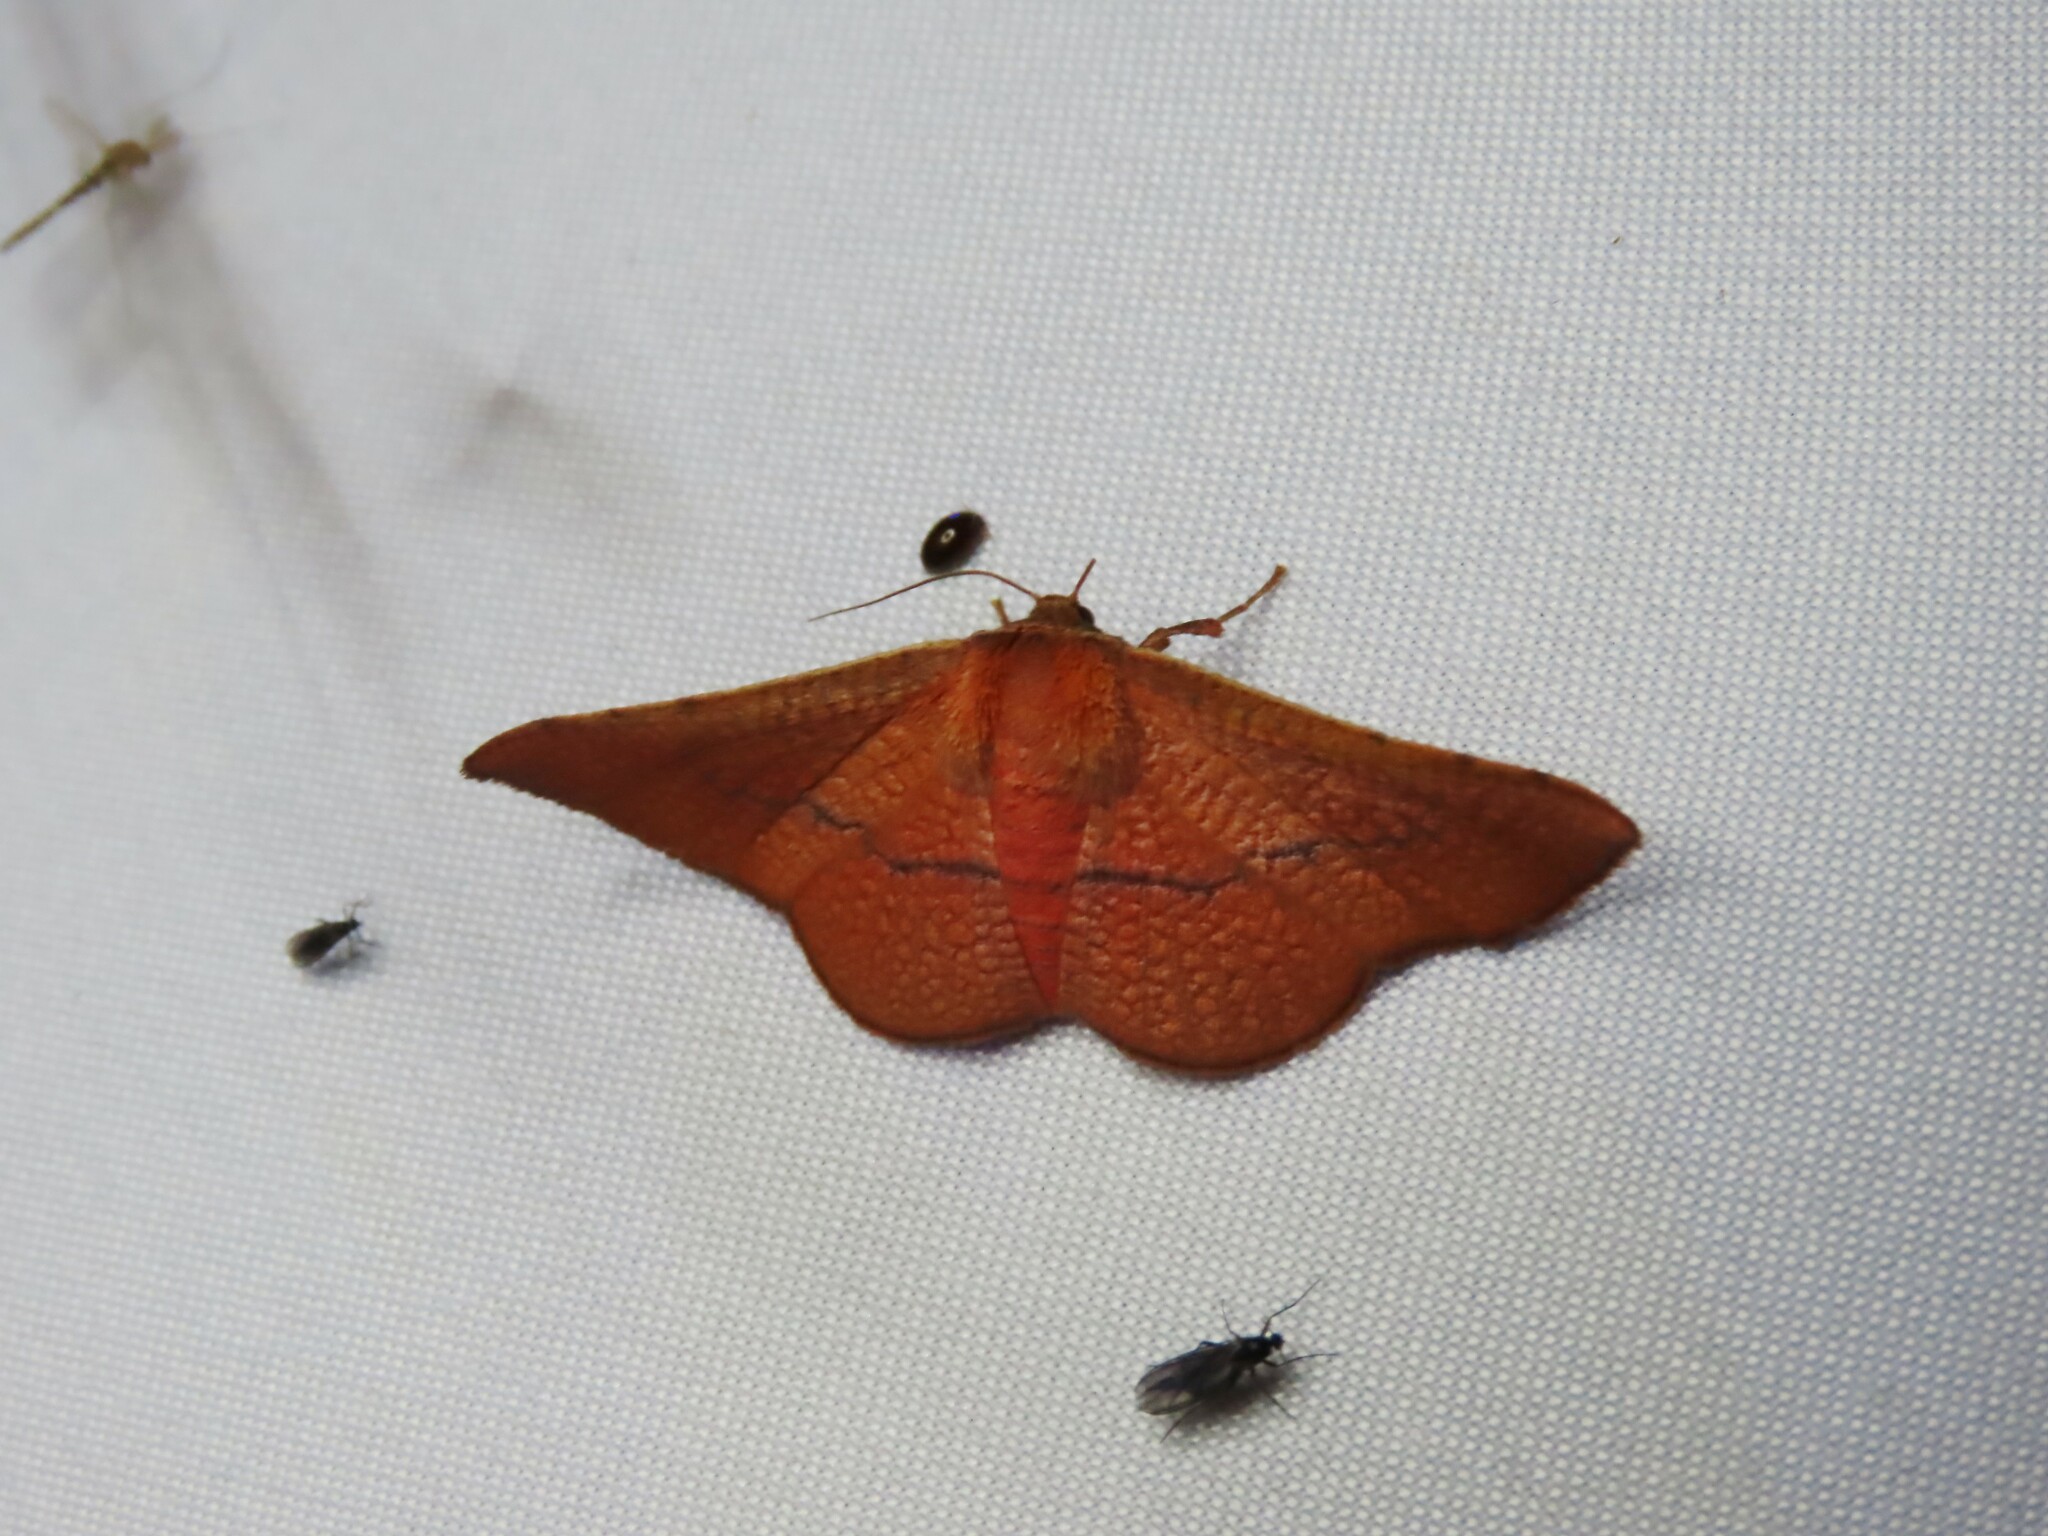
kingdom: Animalia
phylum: Arthropoda
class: Insecta
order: Lepidoptera
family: Thyrididae
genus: Aglaopus
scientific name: Aglaopus pyrrhata
